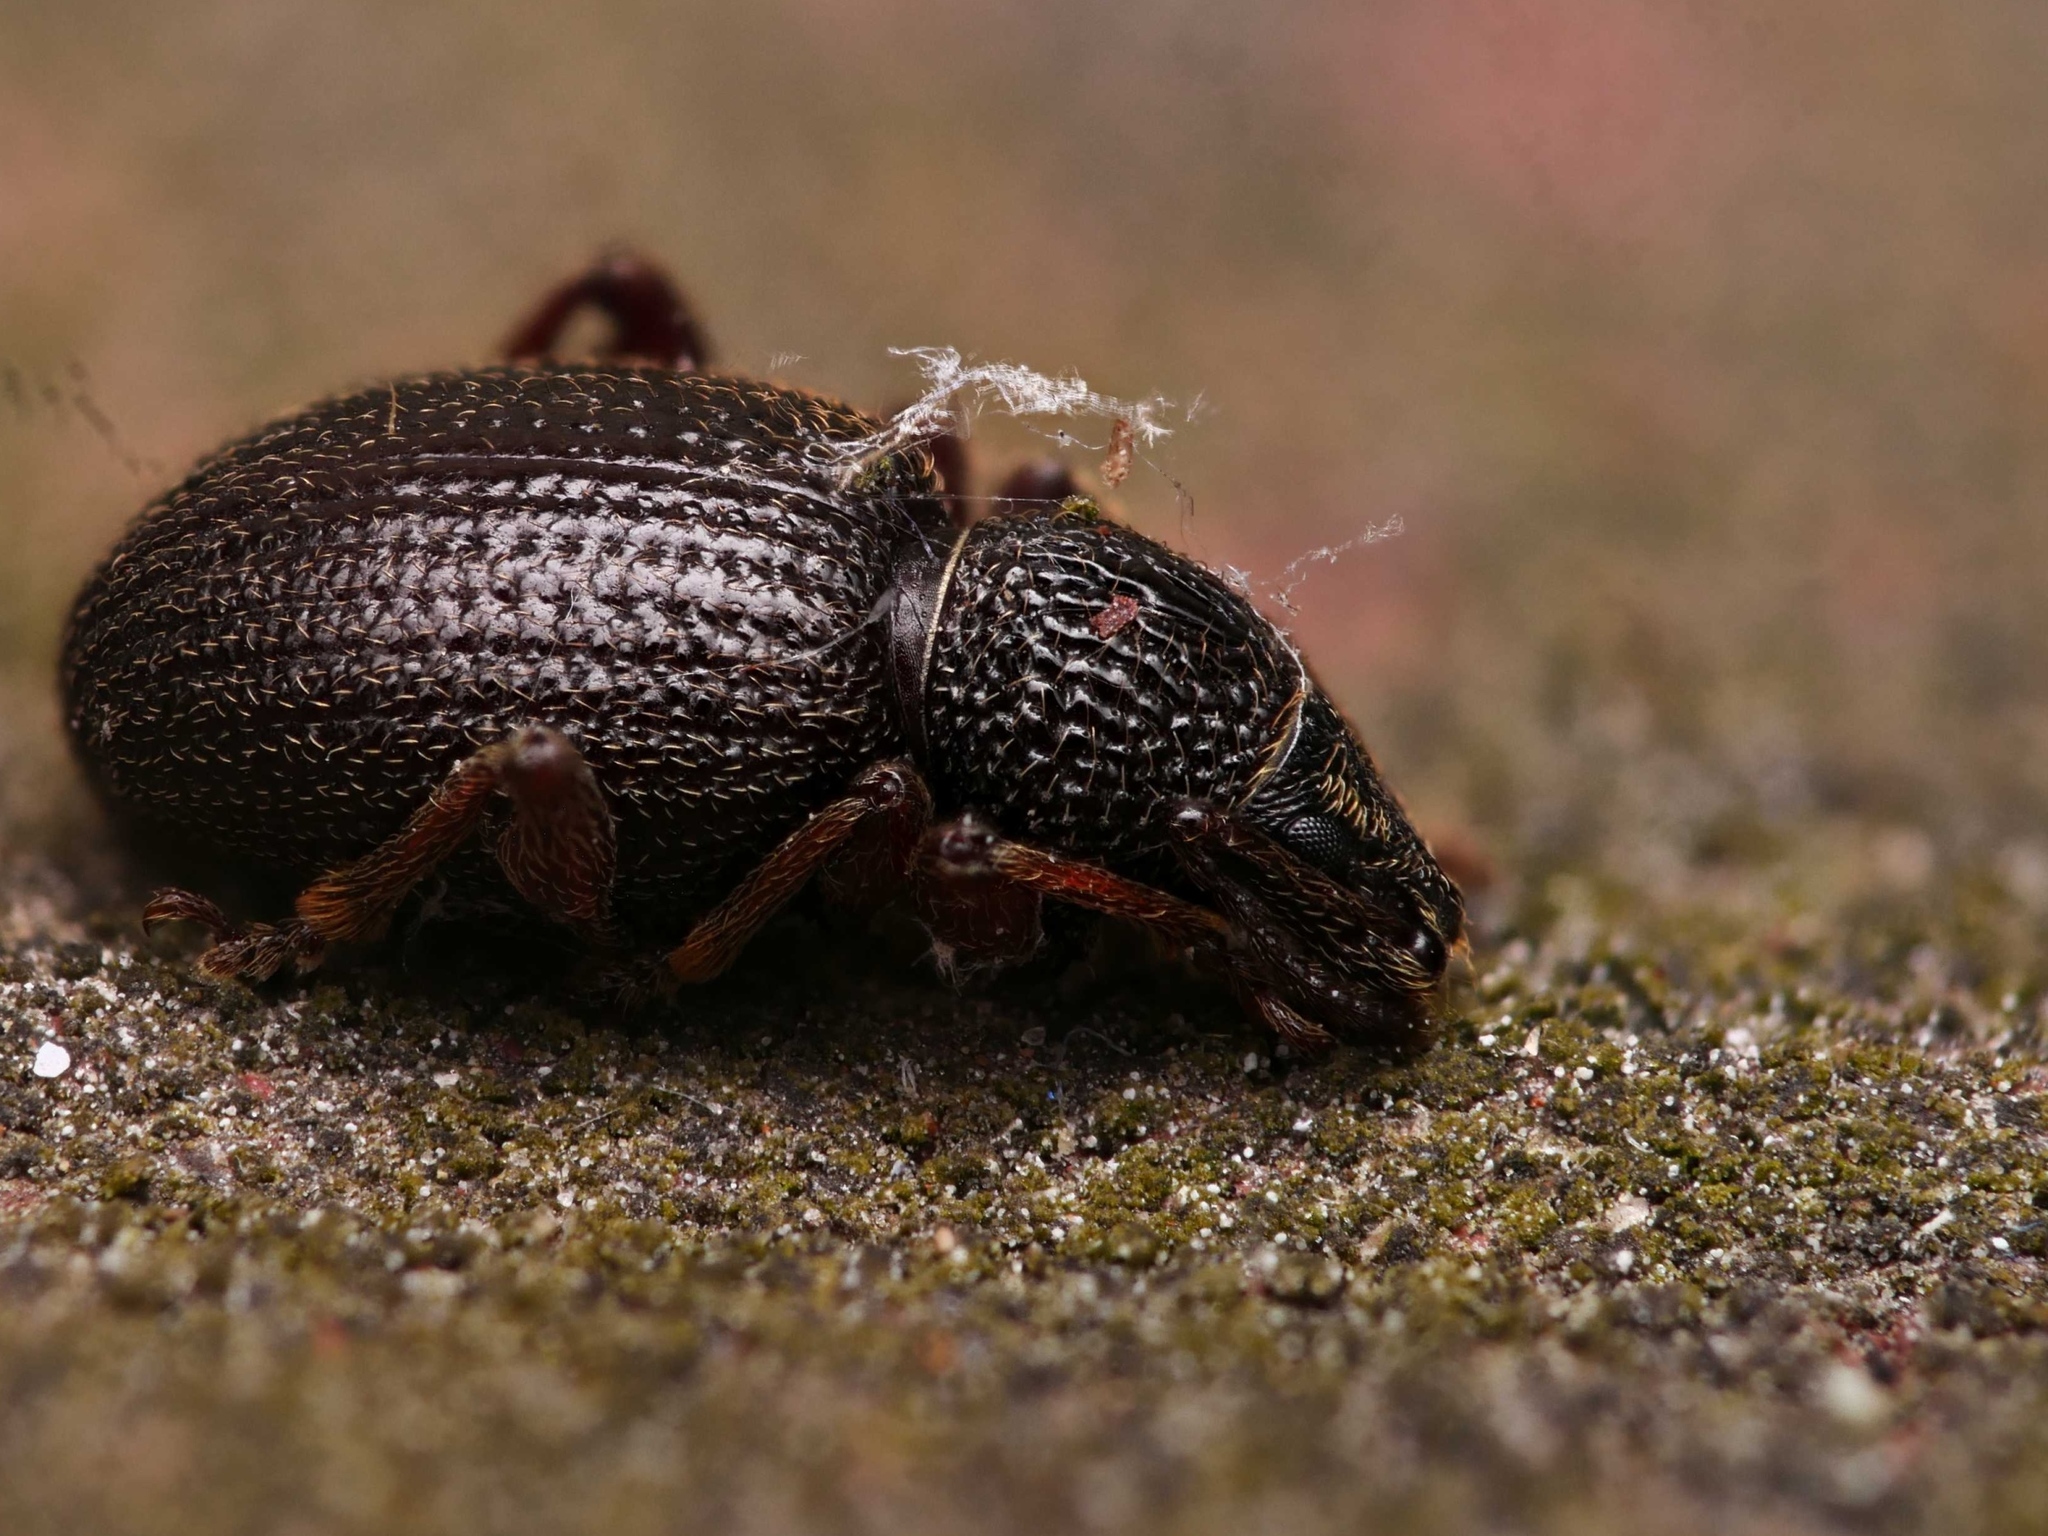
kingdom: Animalia
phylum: Arthropoda
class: Insecta
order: Coleoptera
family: Curculionidae
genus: Otiorhynchus
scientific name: Otiorhynchus ovatus
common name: Strawberry root weevil
